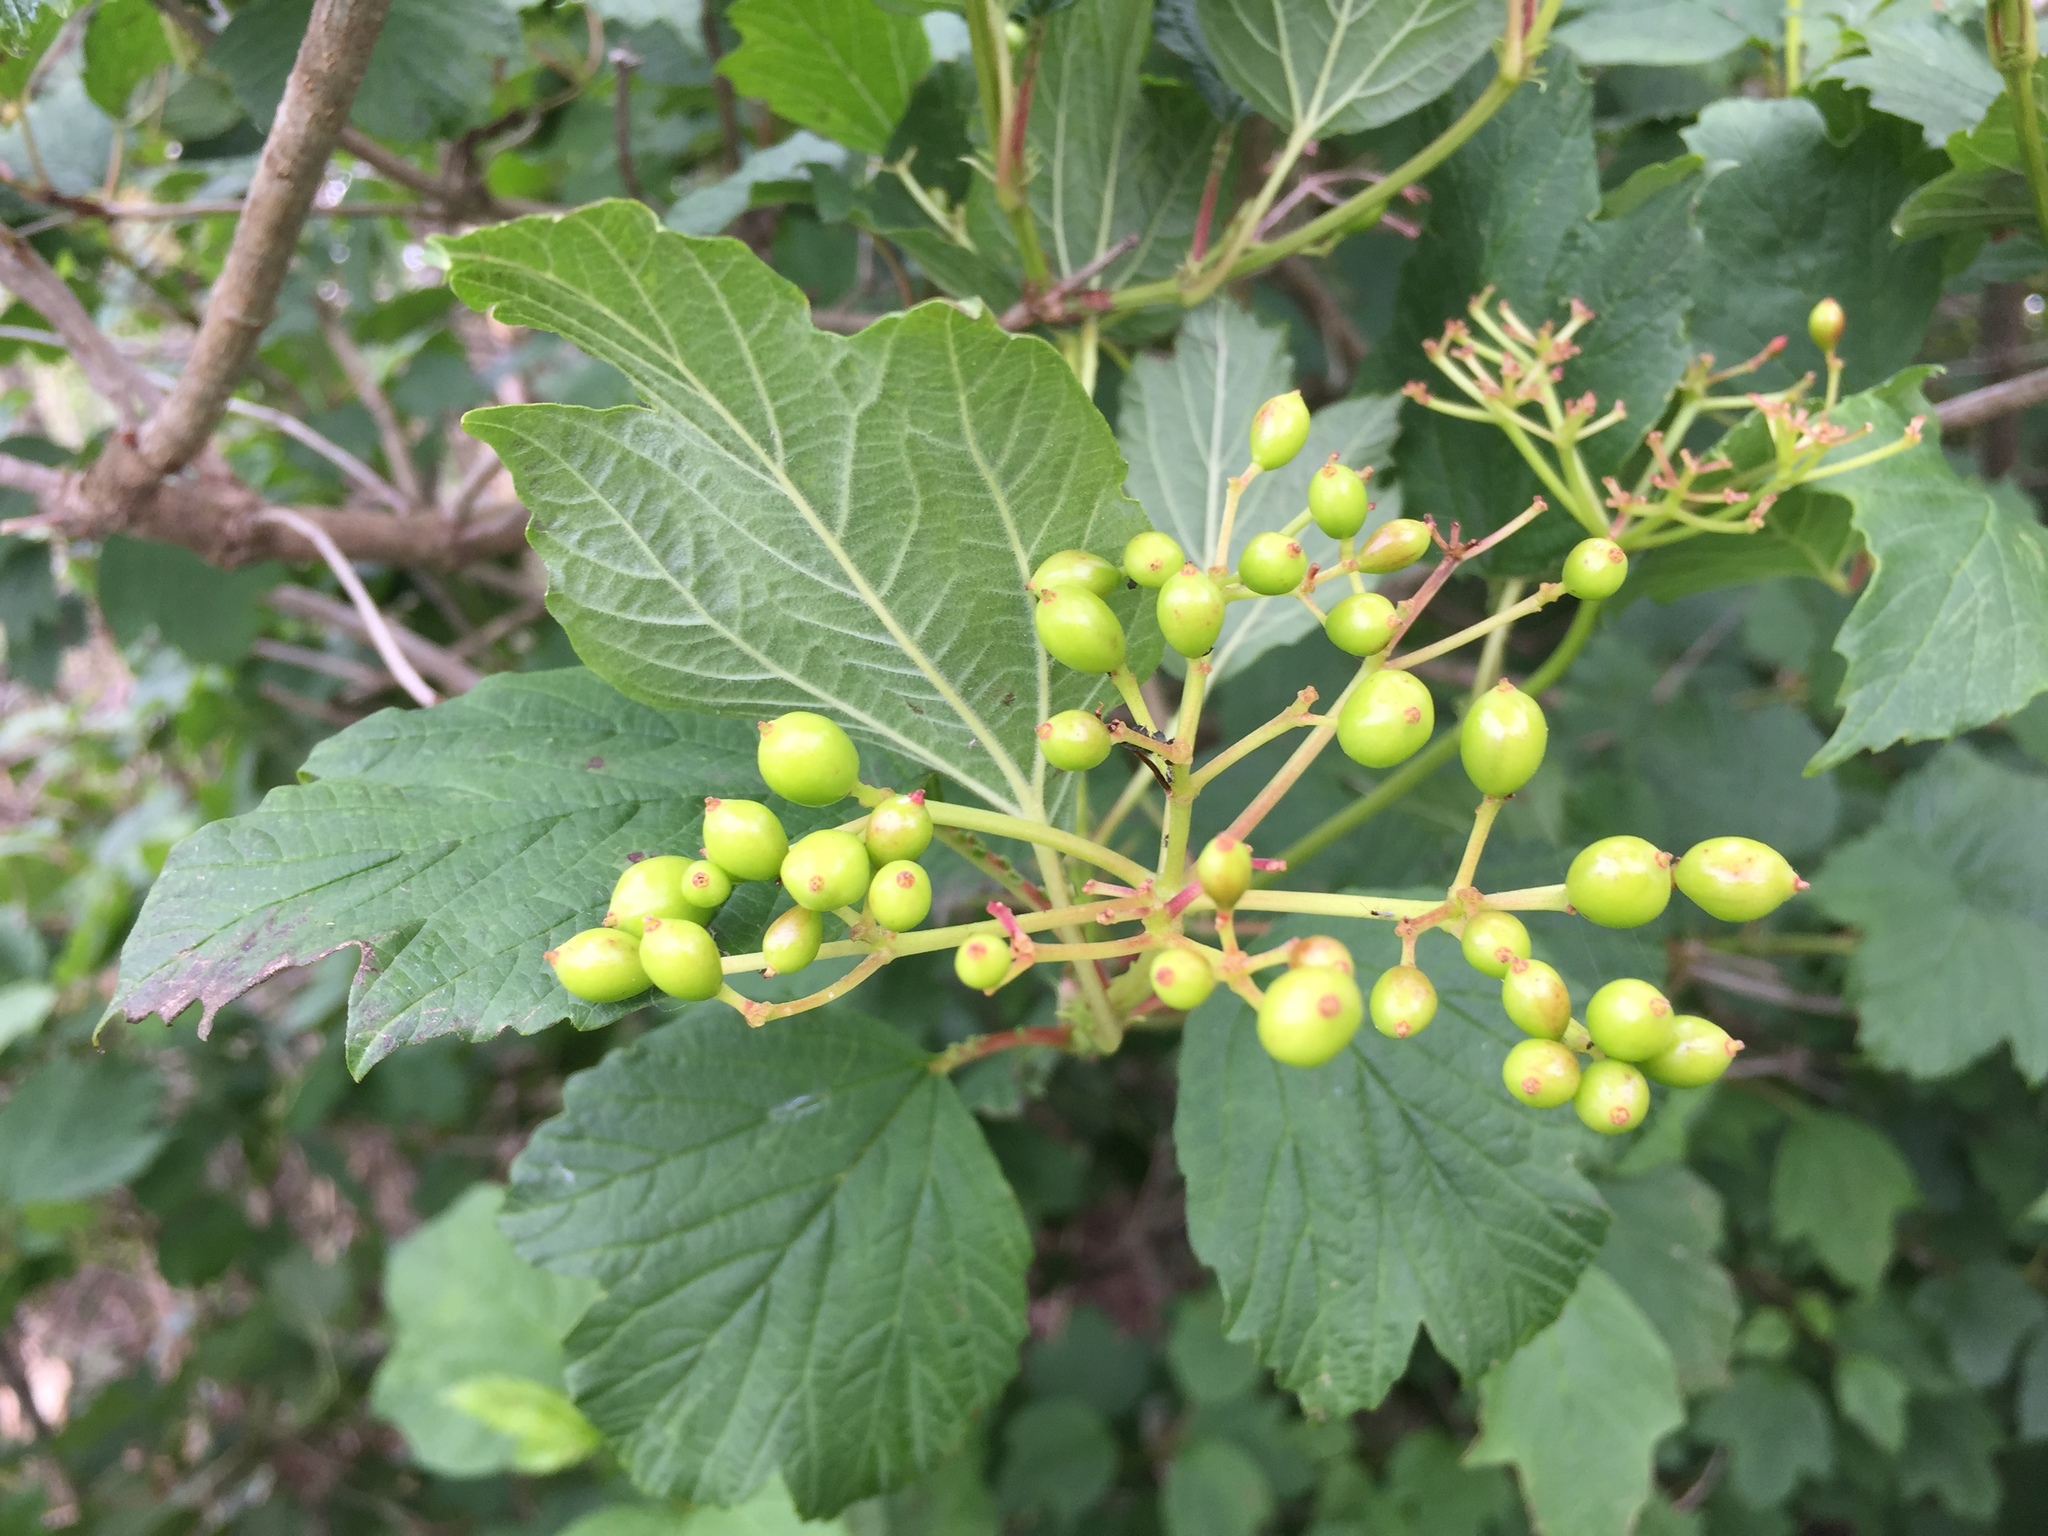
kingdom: Plantae
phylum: Tracheophyta
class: Magnoliopsida
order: Dipsacales
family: Viburnaceae
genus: Viburnum
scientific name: Viburnum opulus
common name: Guelder-rose
